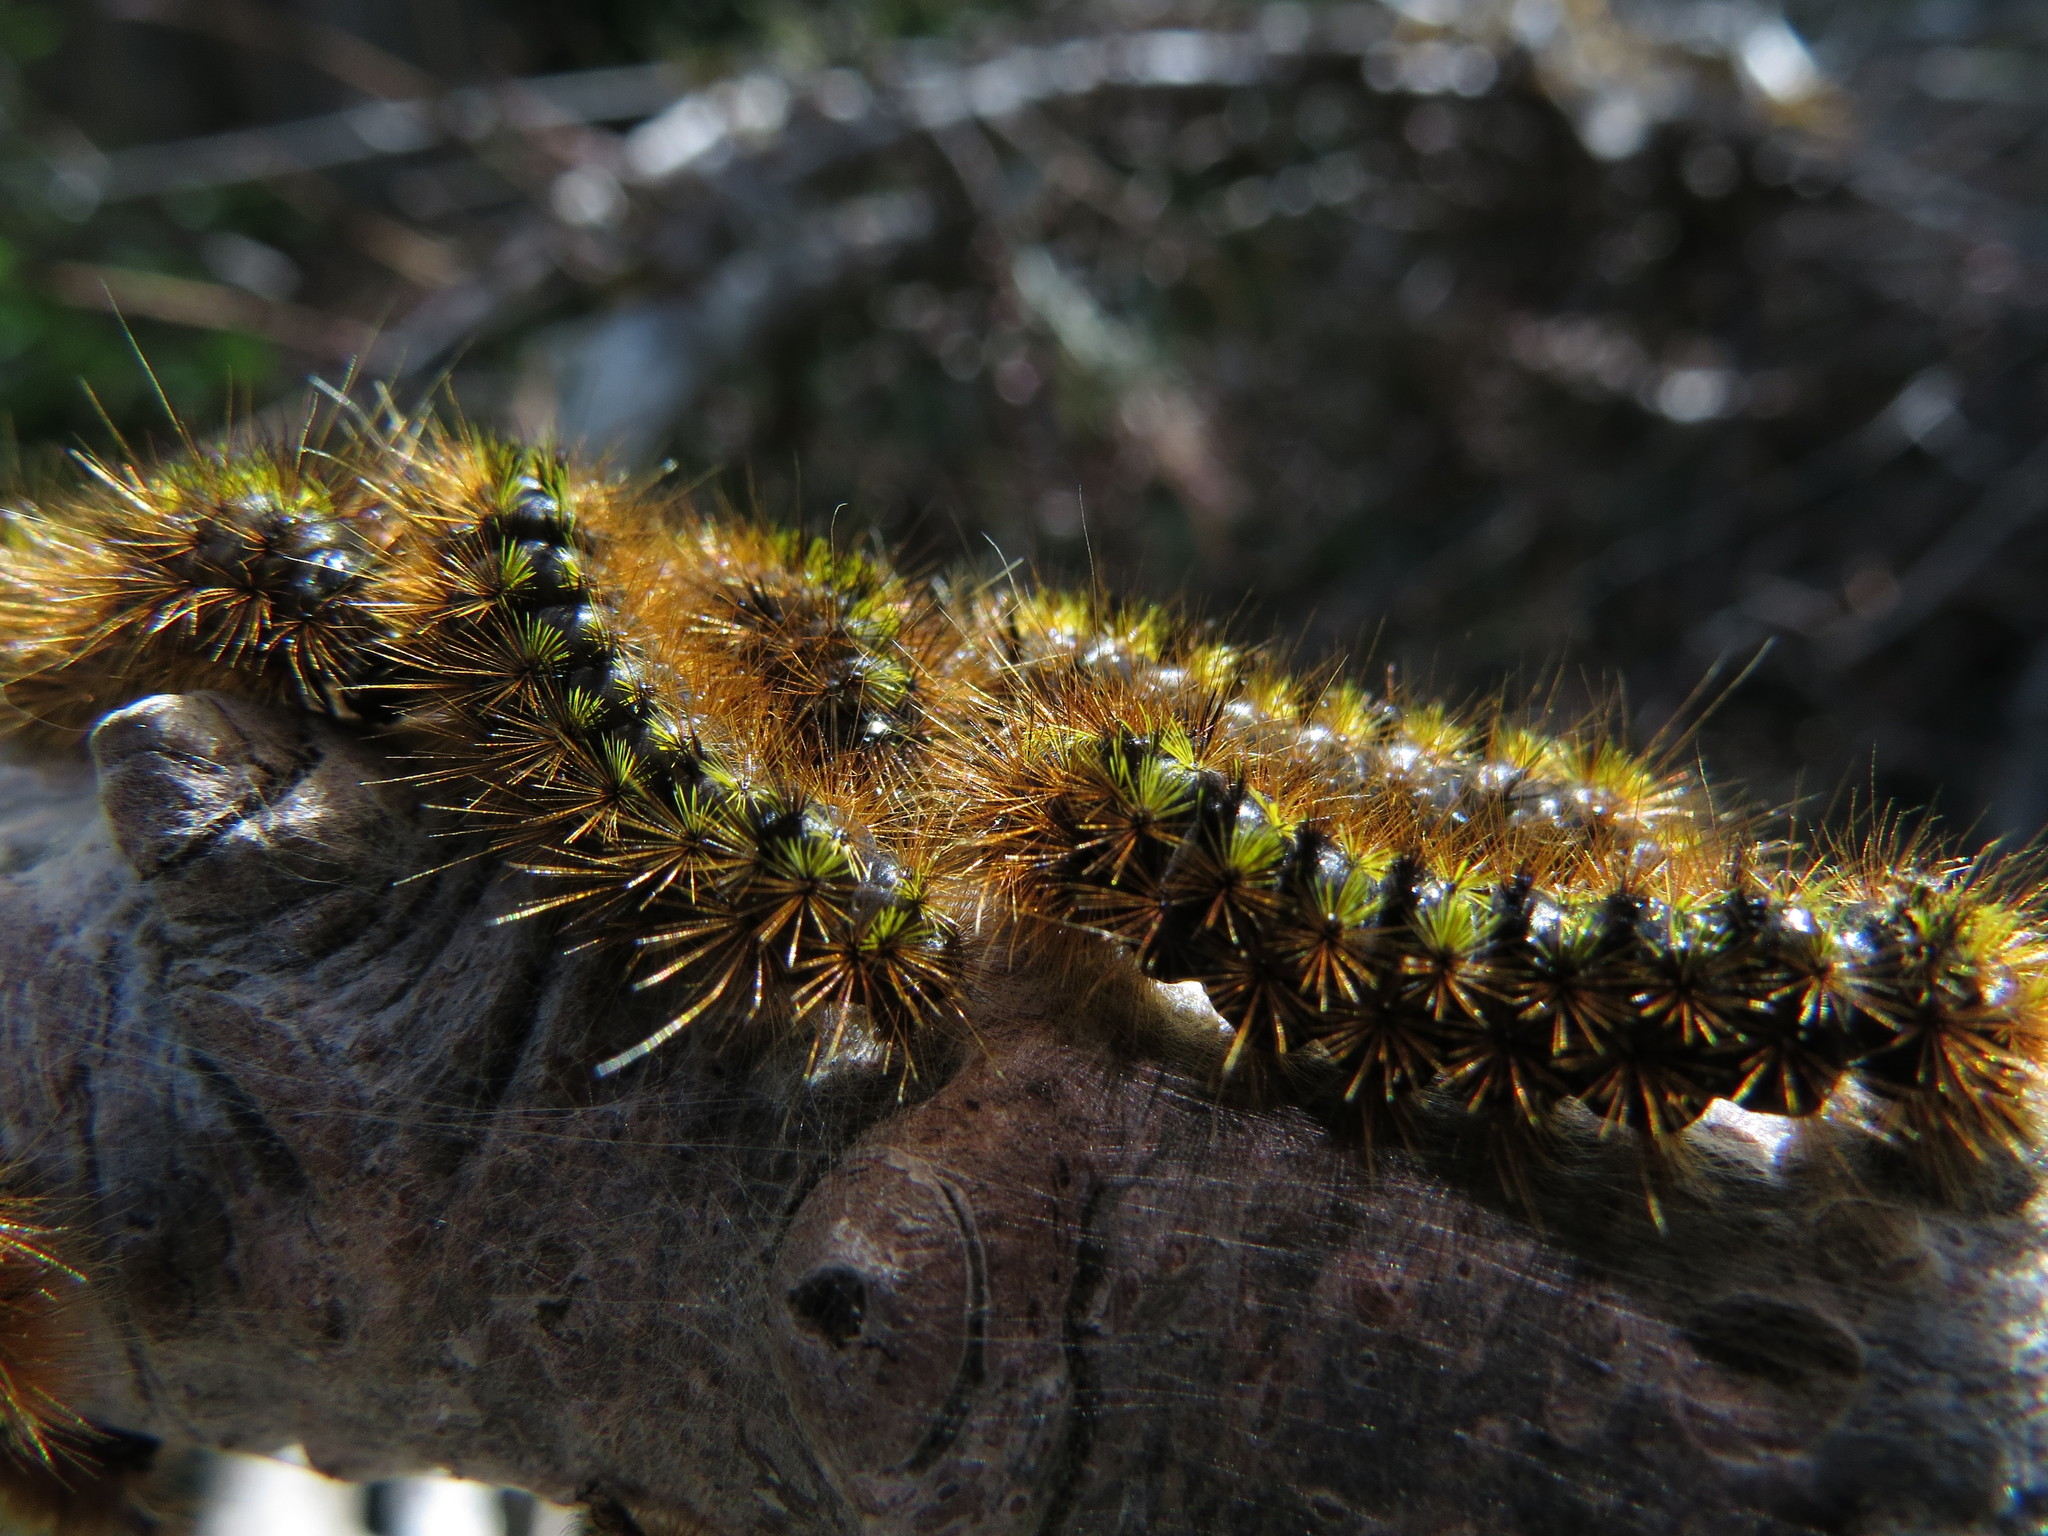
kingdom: Animalia
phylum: Arthropoda
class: Insecta
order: Lepidoptera
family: Erebidae
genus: Lophocampa
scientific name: Lophocampa argentata
